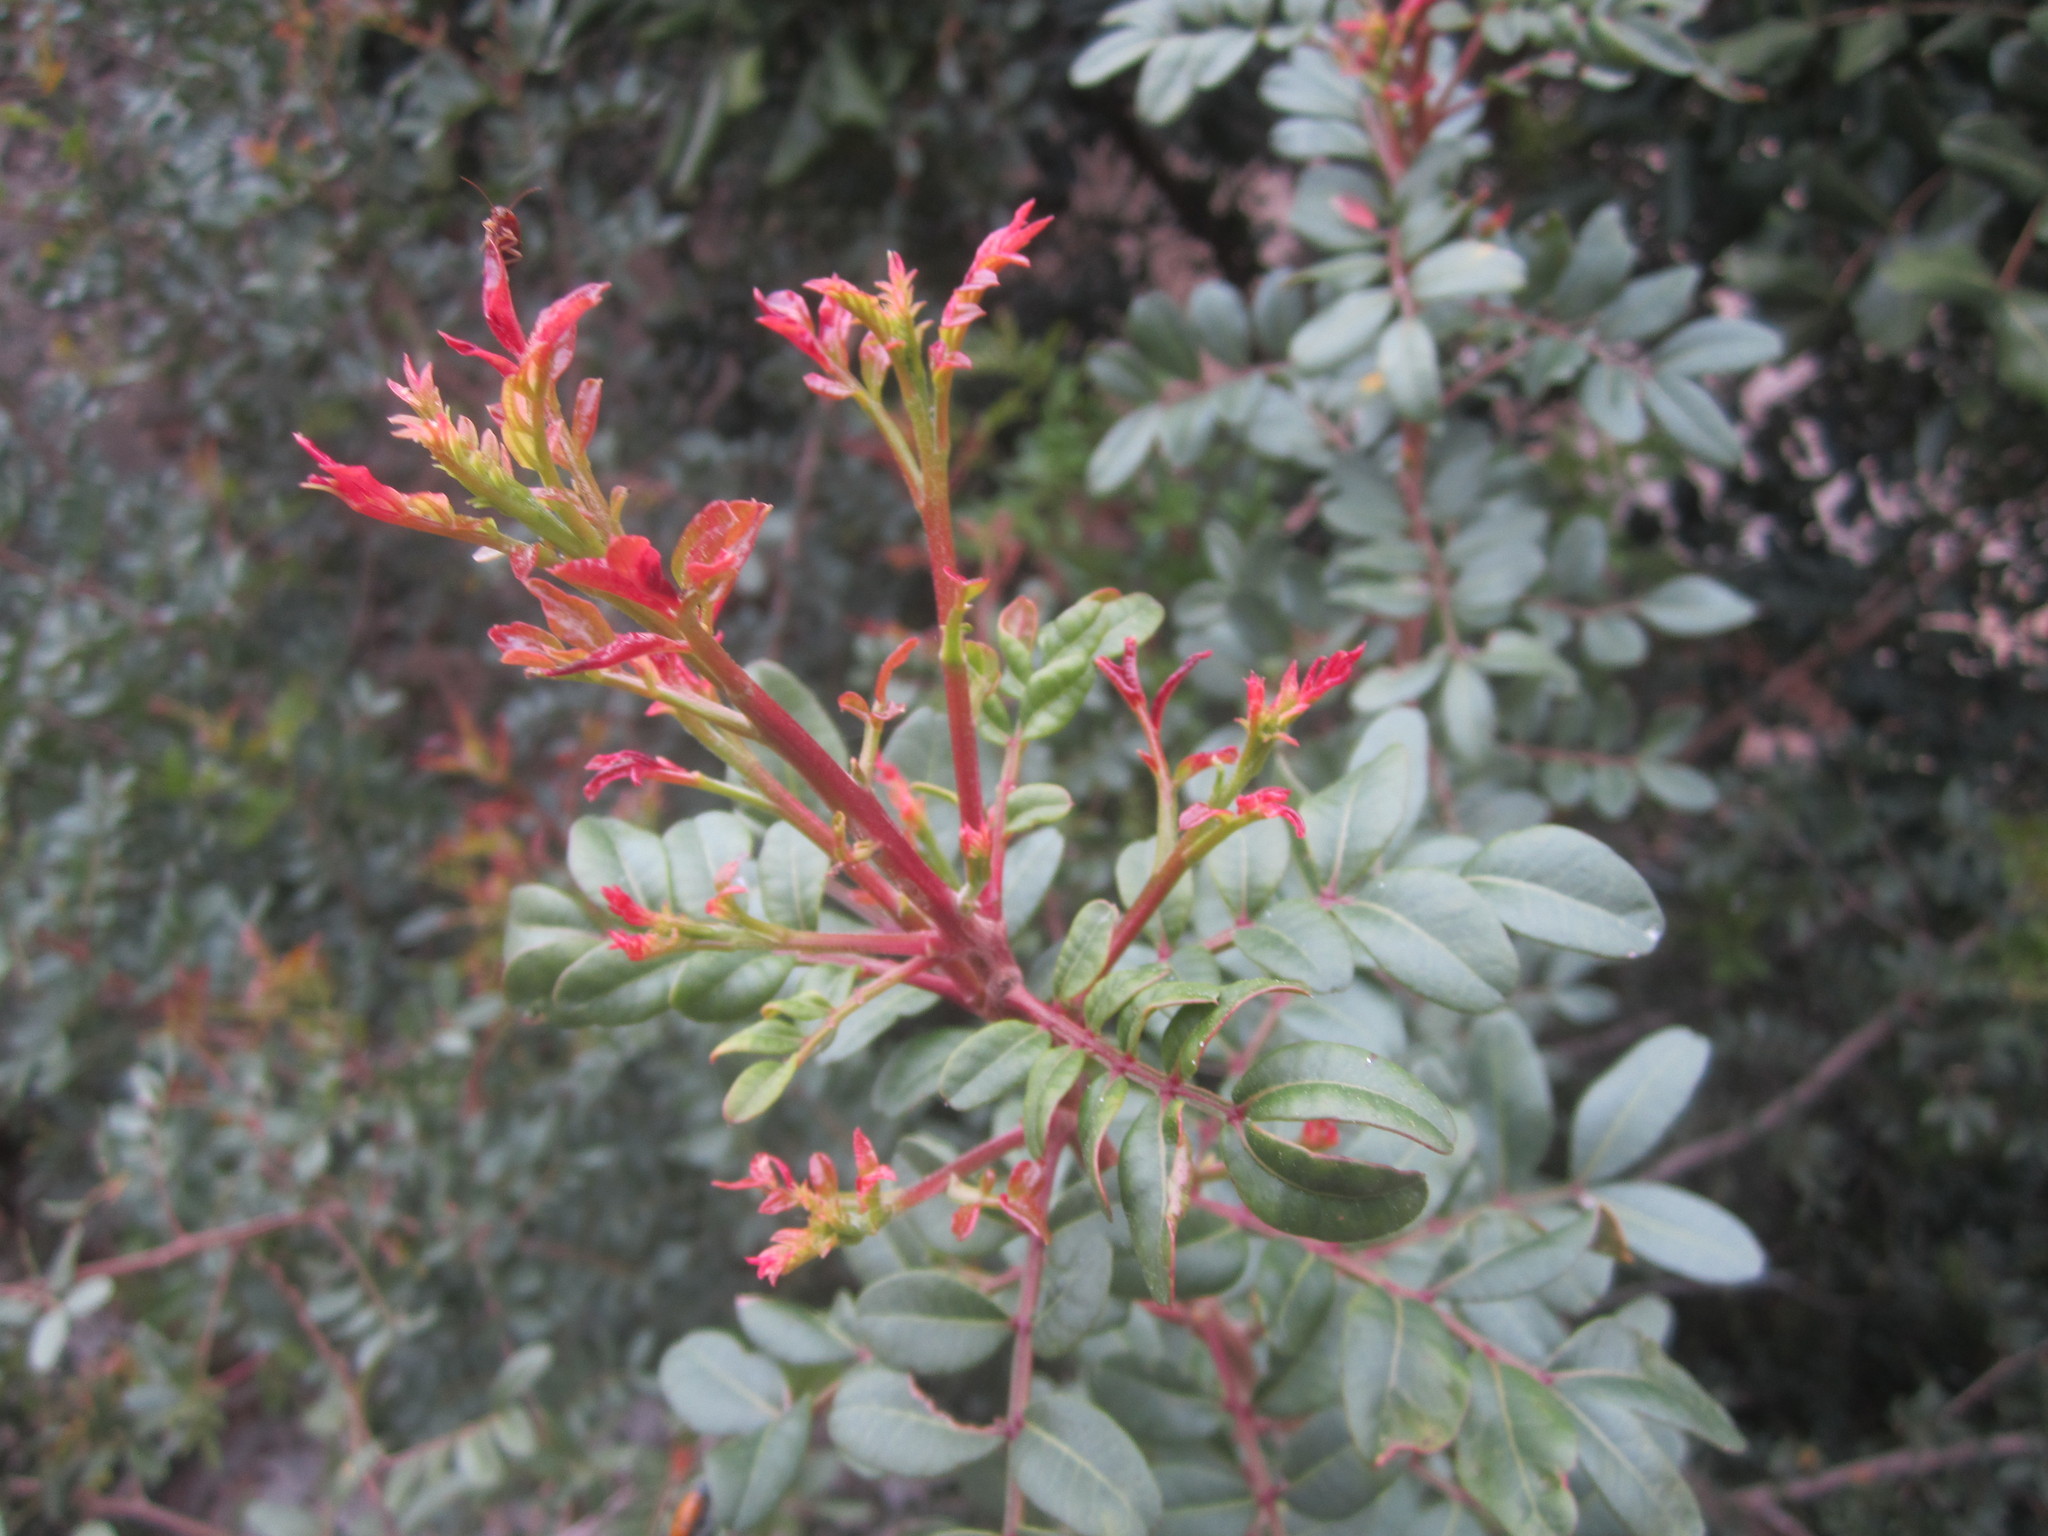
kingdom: Plantae
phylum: Tracheophyta
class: Magnoliopsida
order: Sapindales
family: Anacardiaceae
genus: Pistacia
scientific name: Pistacia lentiscus
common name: Lentisk
